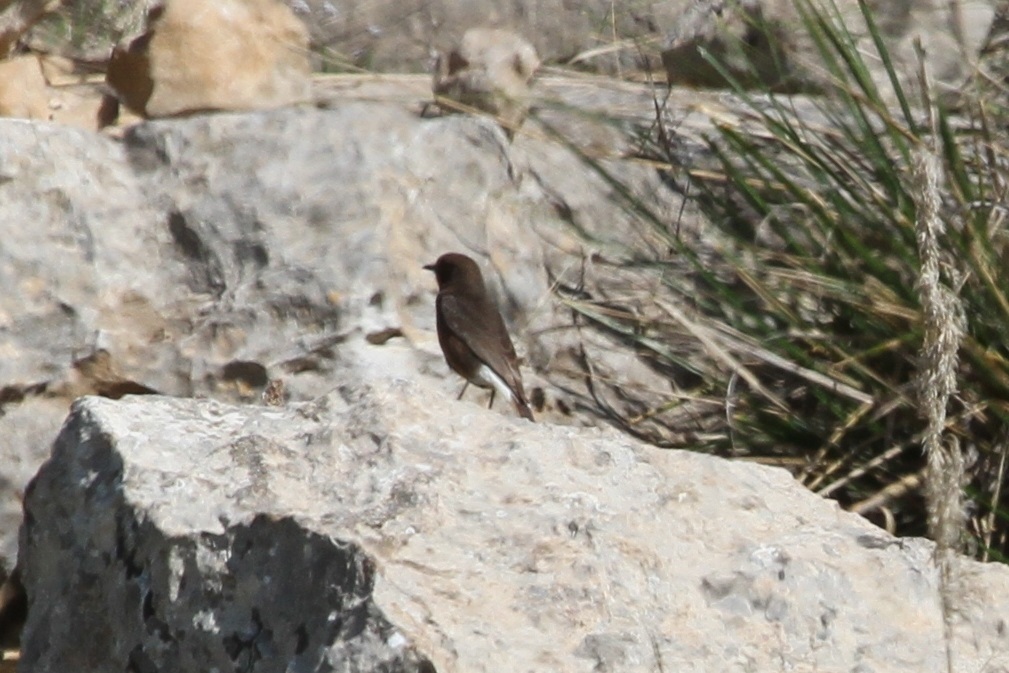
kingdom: Animalia
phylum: Chordata
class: Aves
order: Passeriformes
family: Muscicapidae
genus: Oenanthe
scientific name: Oenanthe leucura
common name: Black wheatear
